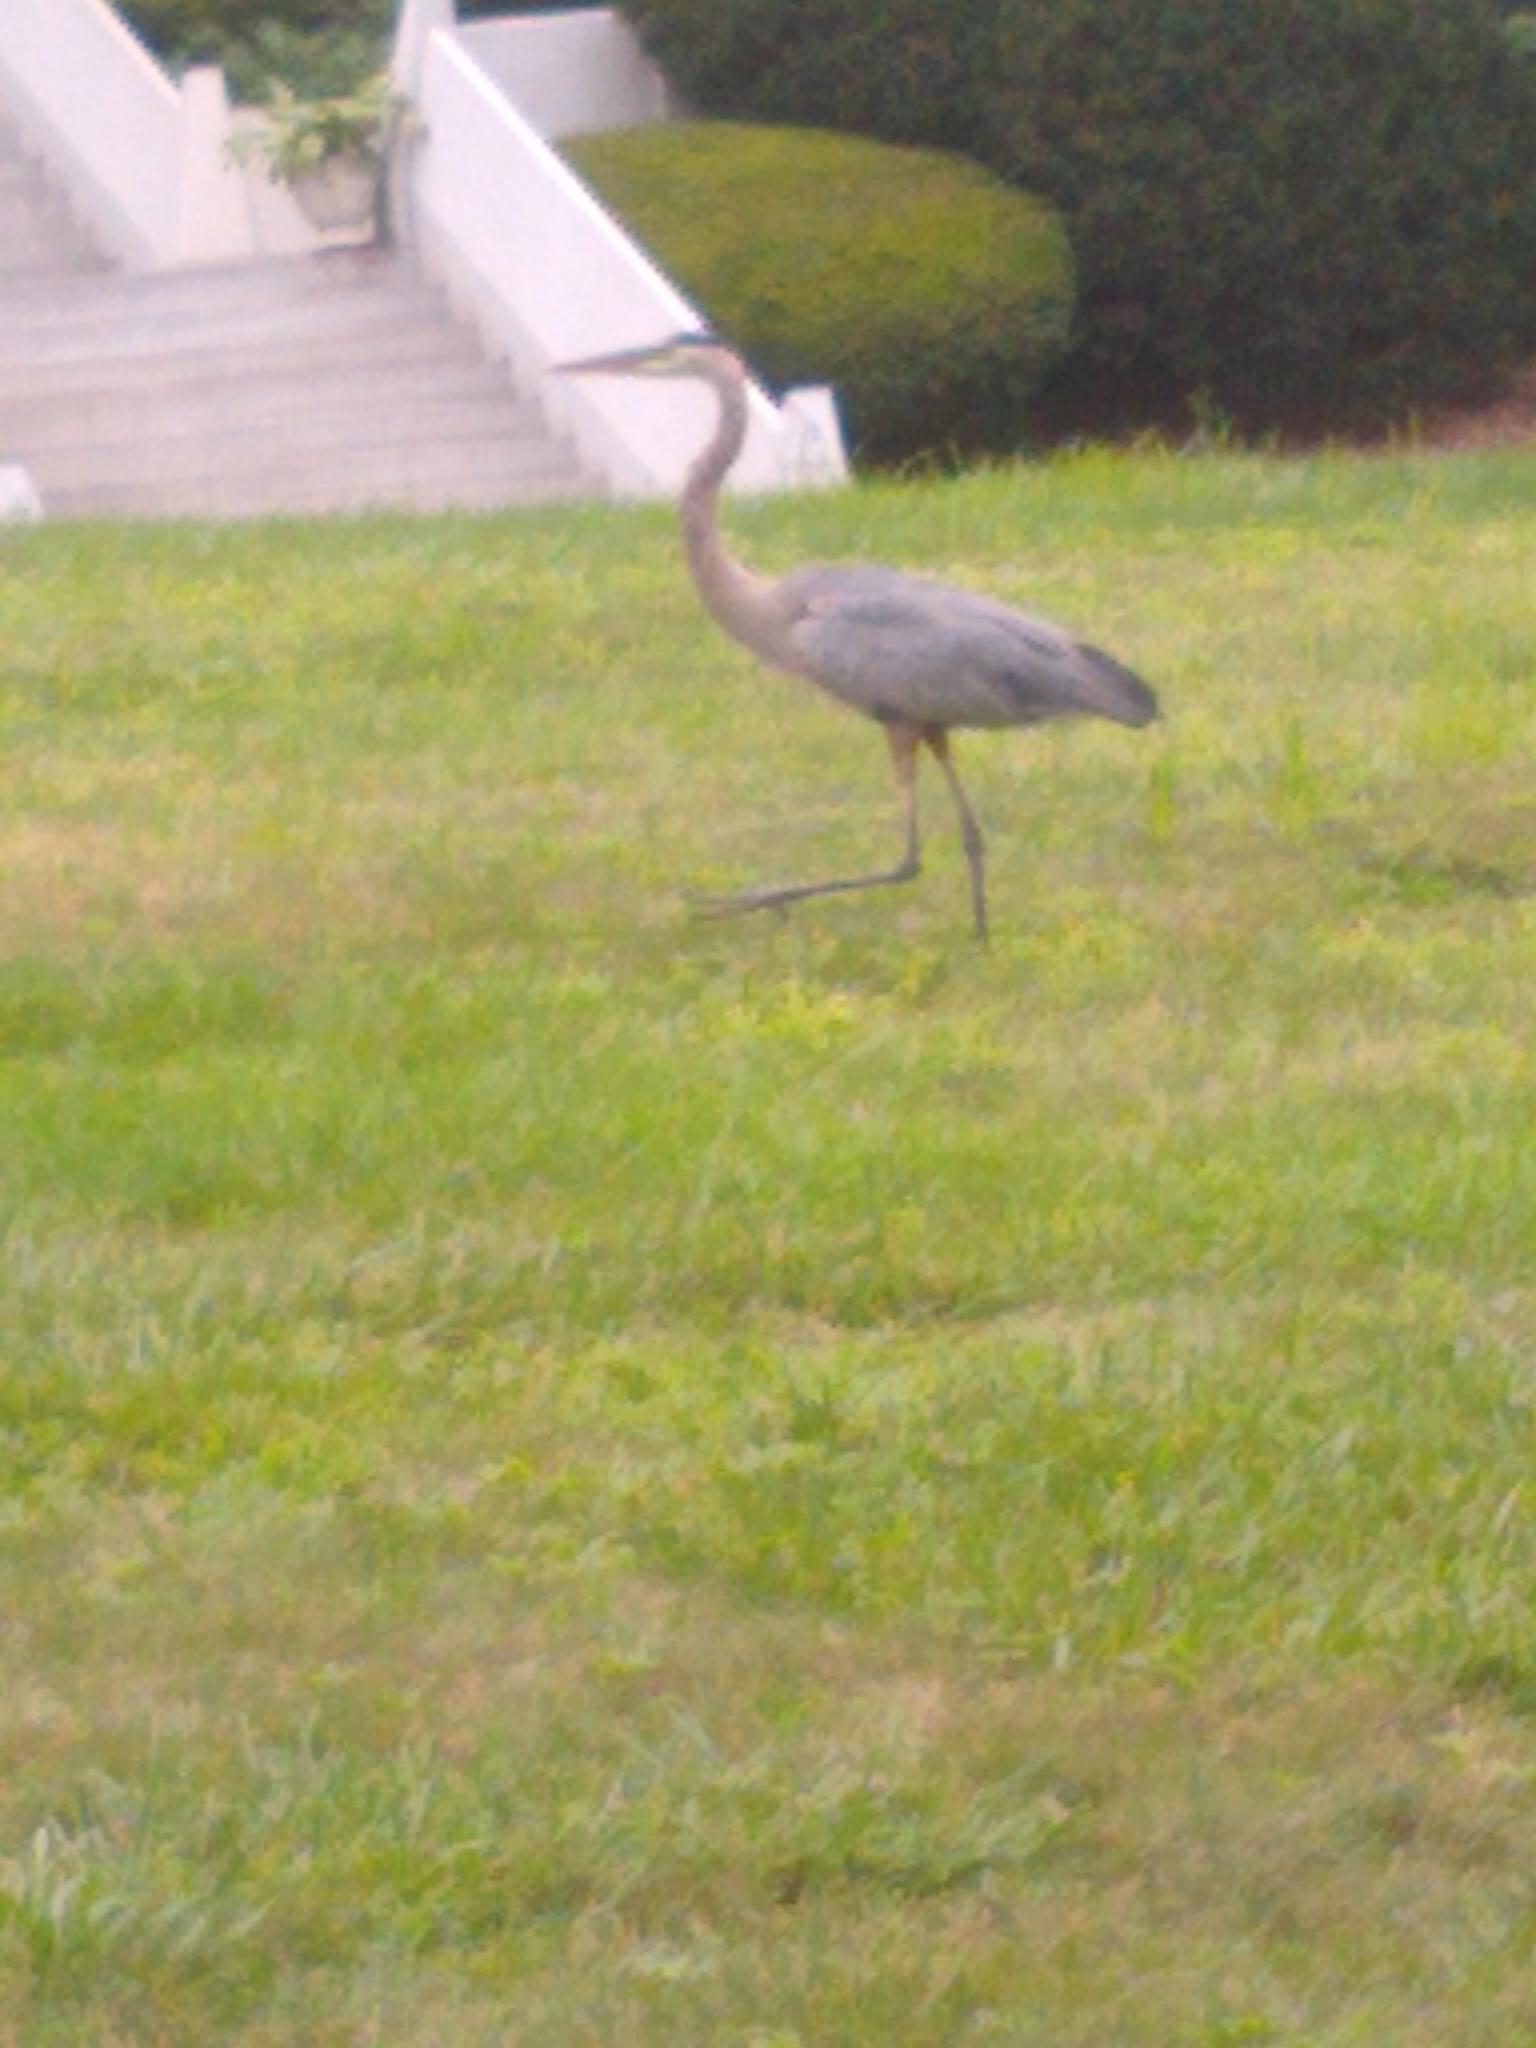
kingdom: Animalia
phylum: Chordata
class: Aves
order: Pelecaniformes
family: Ardeidae
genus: Ardea
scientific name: Ardea herodias
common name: Great blue heron
